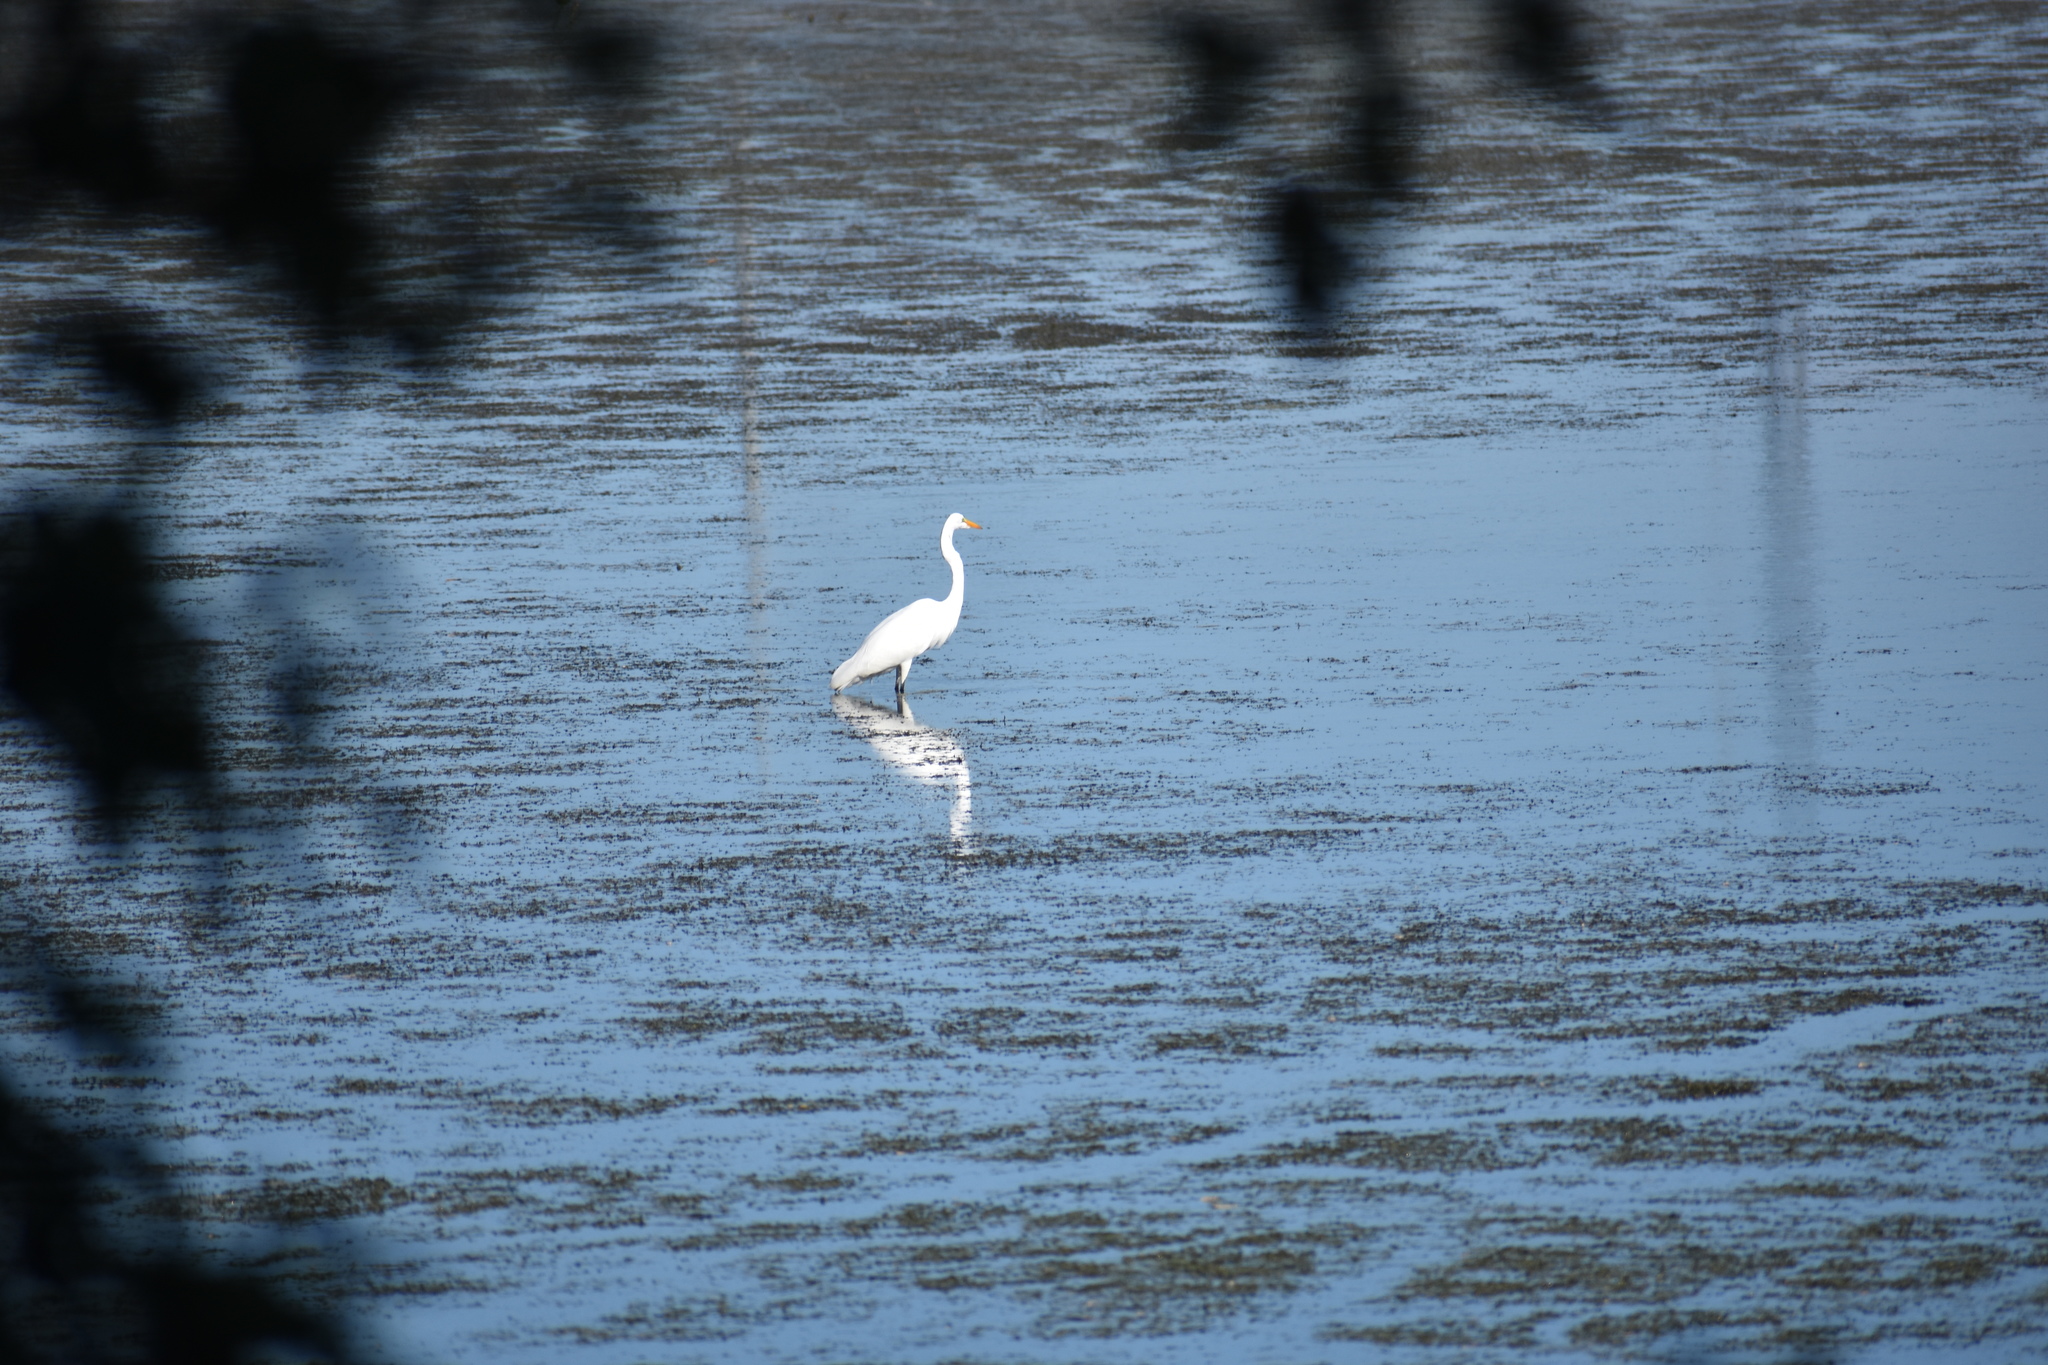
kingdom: Animalia
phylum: Chordata
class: Aves
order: Pelecaniformes
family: Ardeidae
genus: Ardea
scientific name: Ardea alba
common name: Great egret
